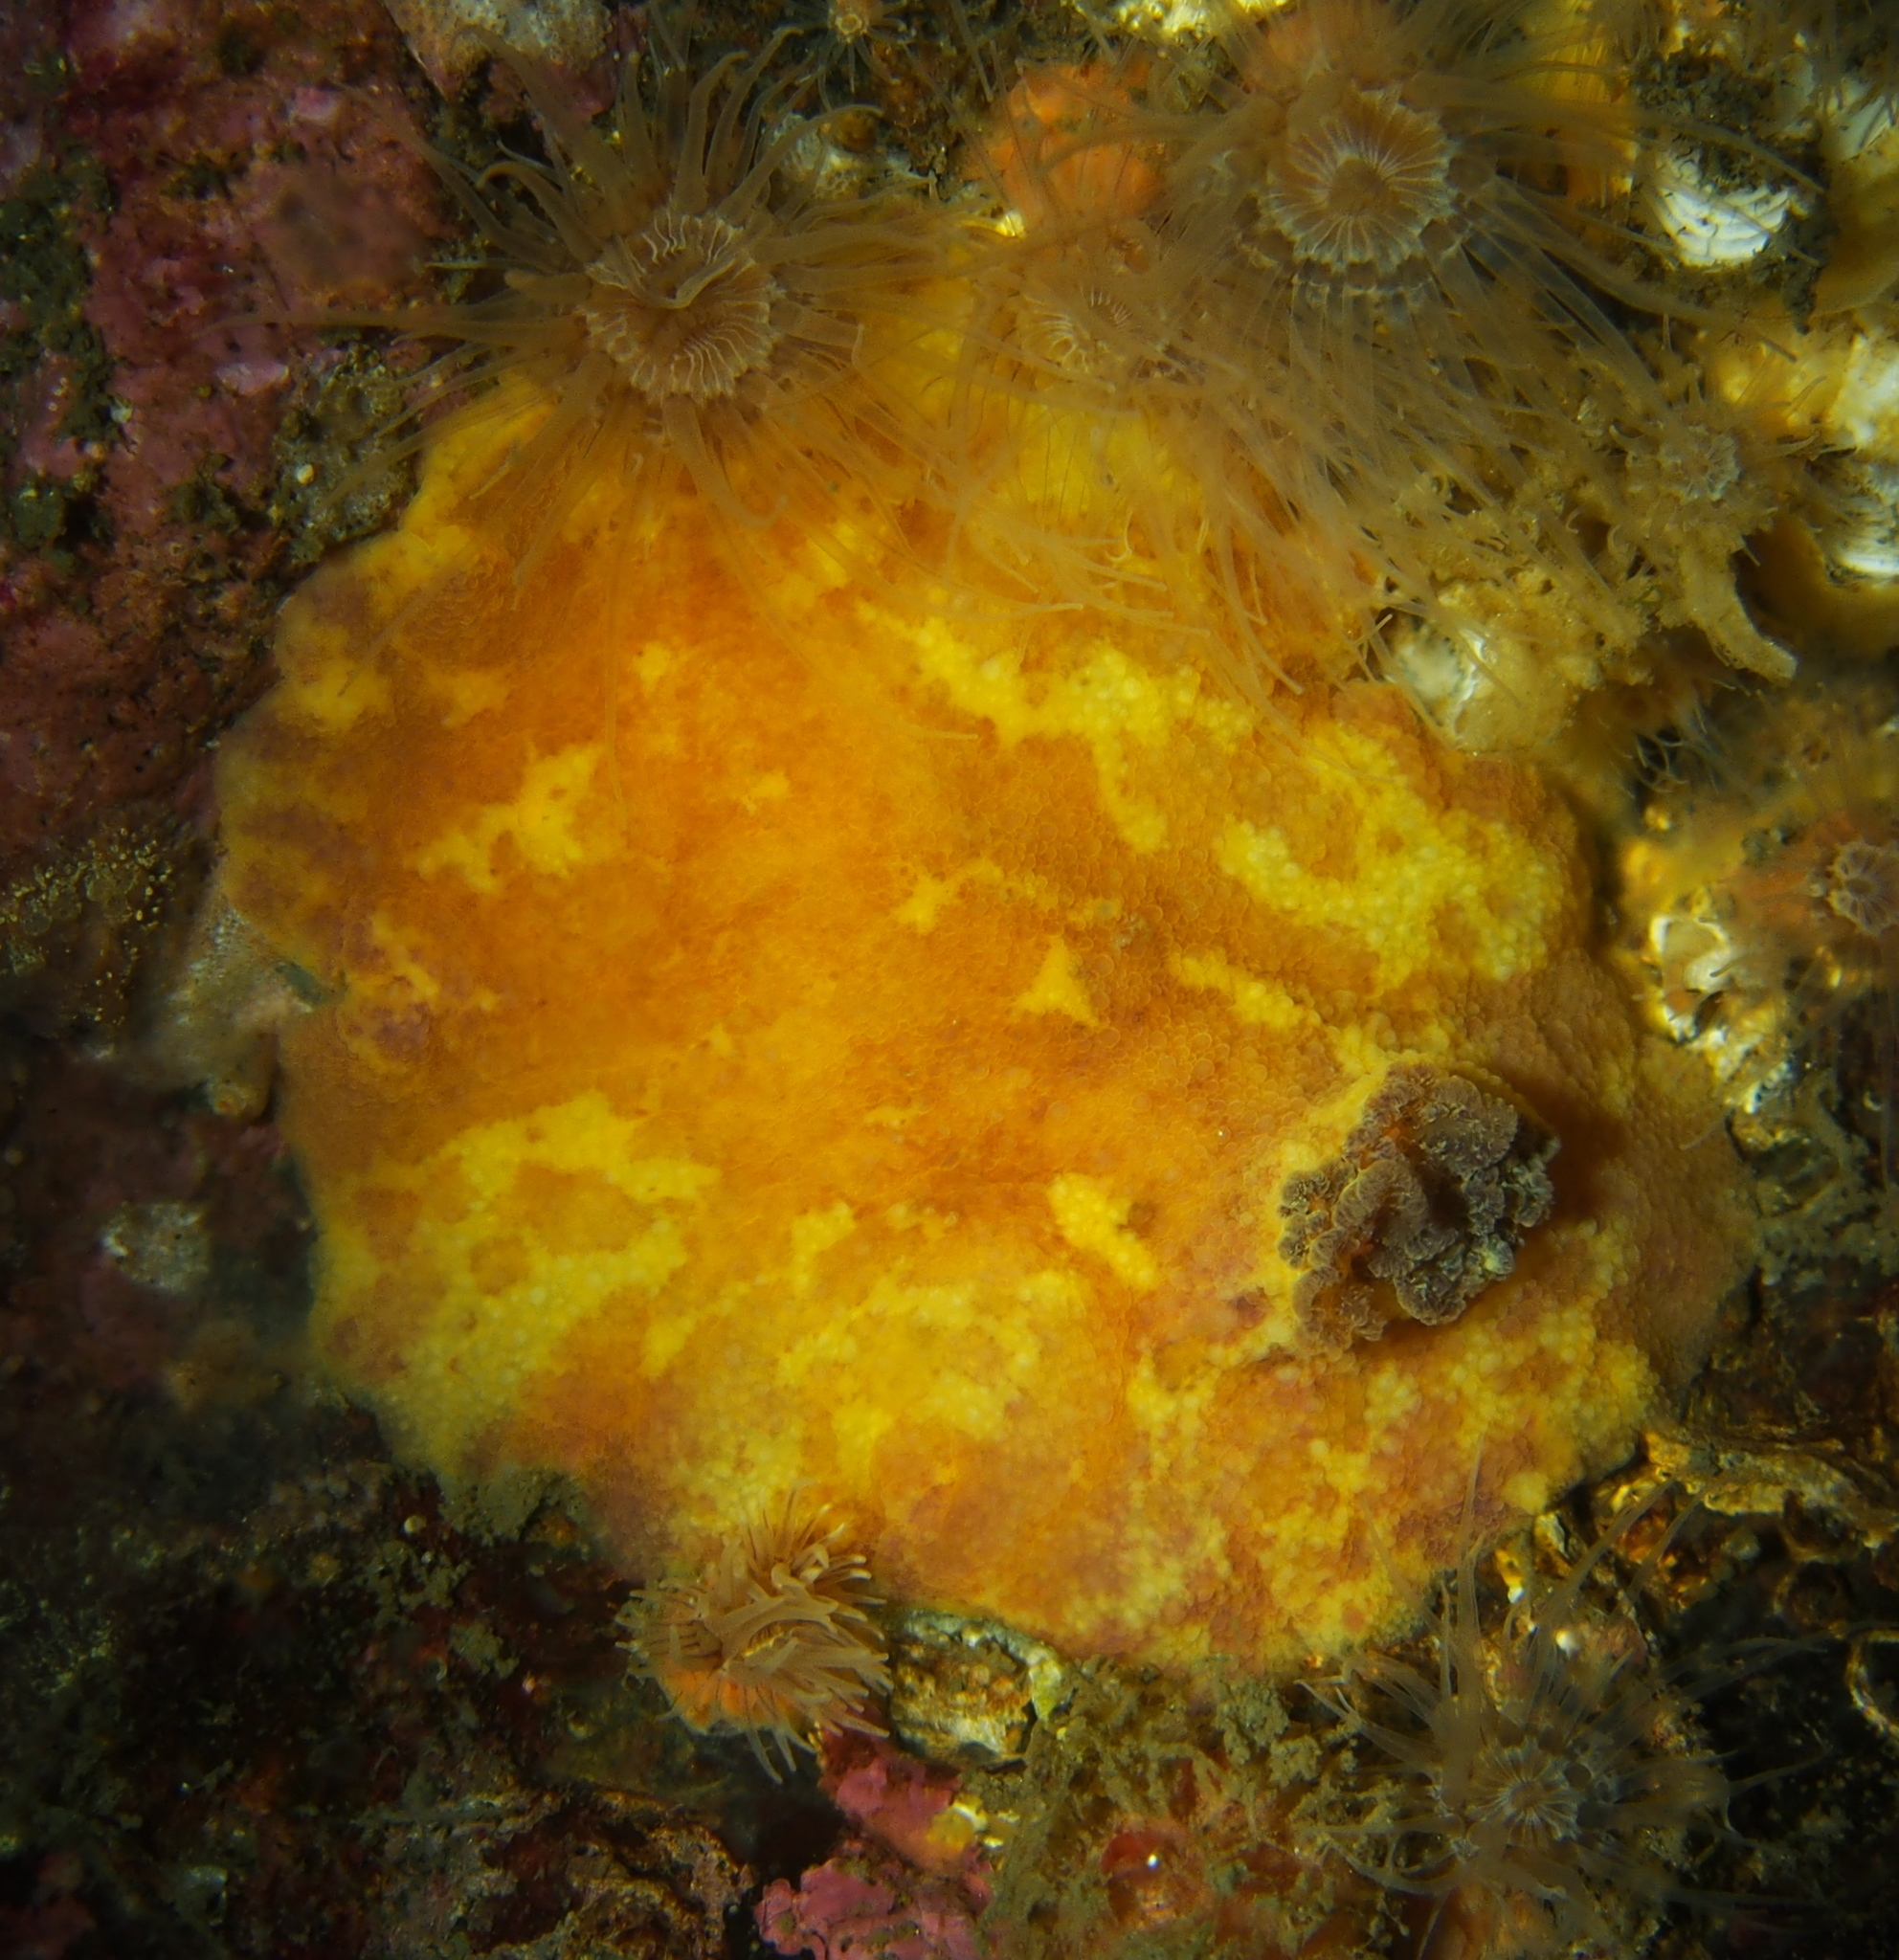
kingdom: Animalia
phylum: Mollusca
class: Gastropoda
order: Nudibranchia
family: Dorididae
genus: Doris
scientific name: Doris pseudoargus
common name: Sea lemon
